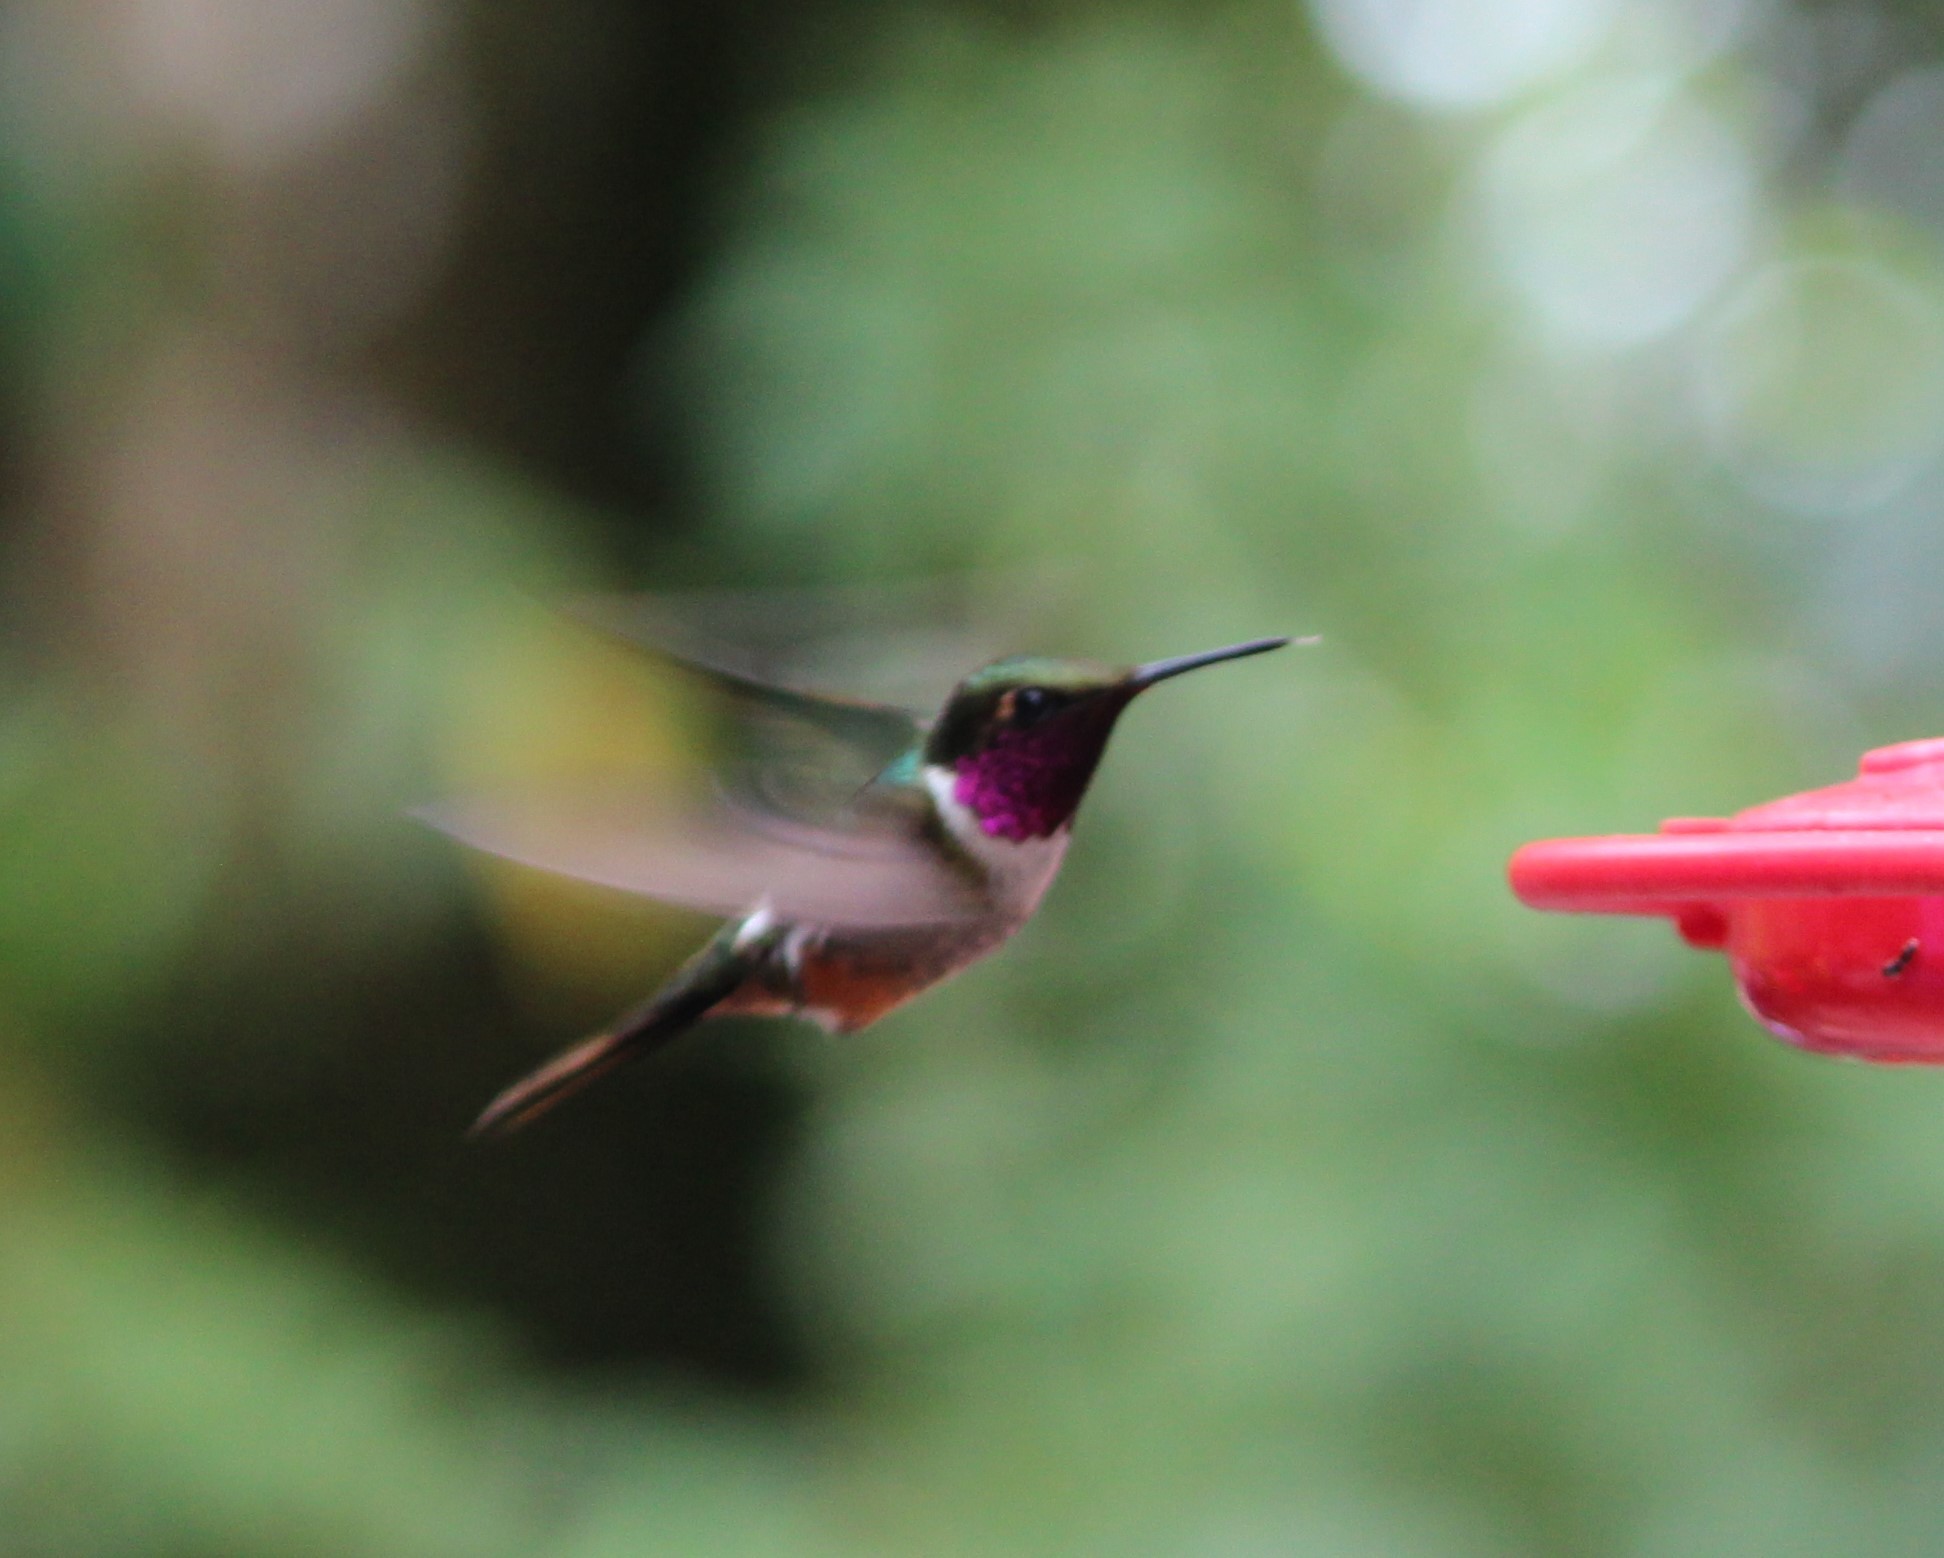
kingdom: Animalia
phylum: Chordata
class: Aves
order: Apodiformes
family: Trochilidae
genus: Calliphlox
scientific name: Calliphlox bryantae
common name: Magenta-throated woodstar
